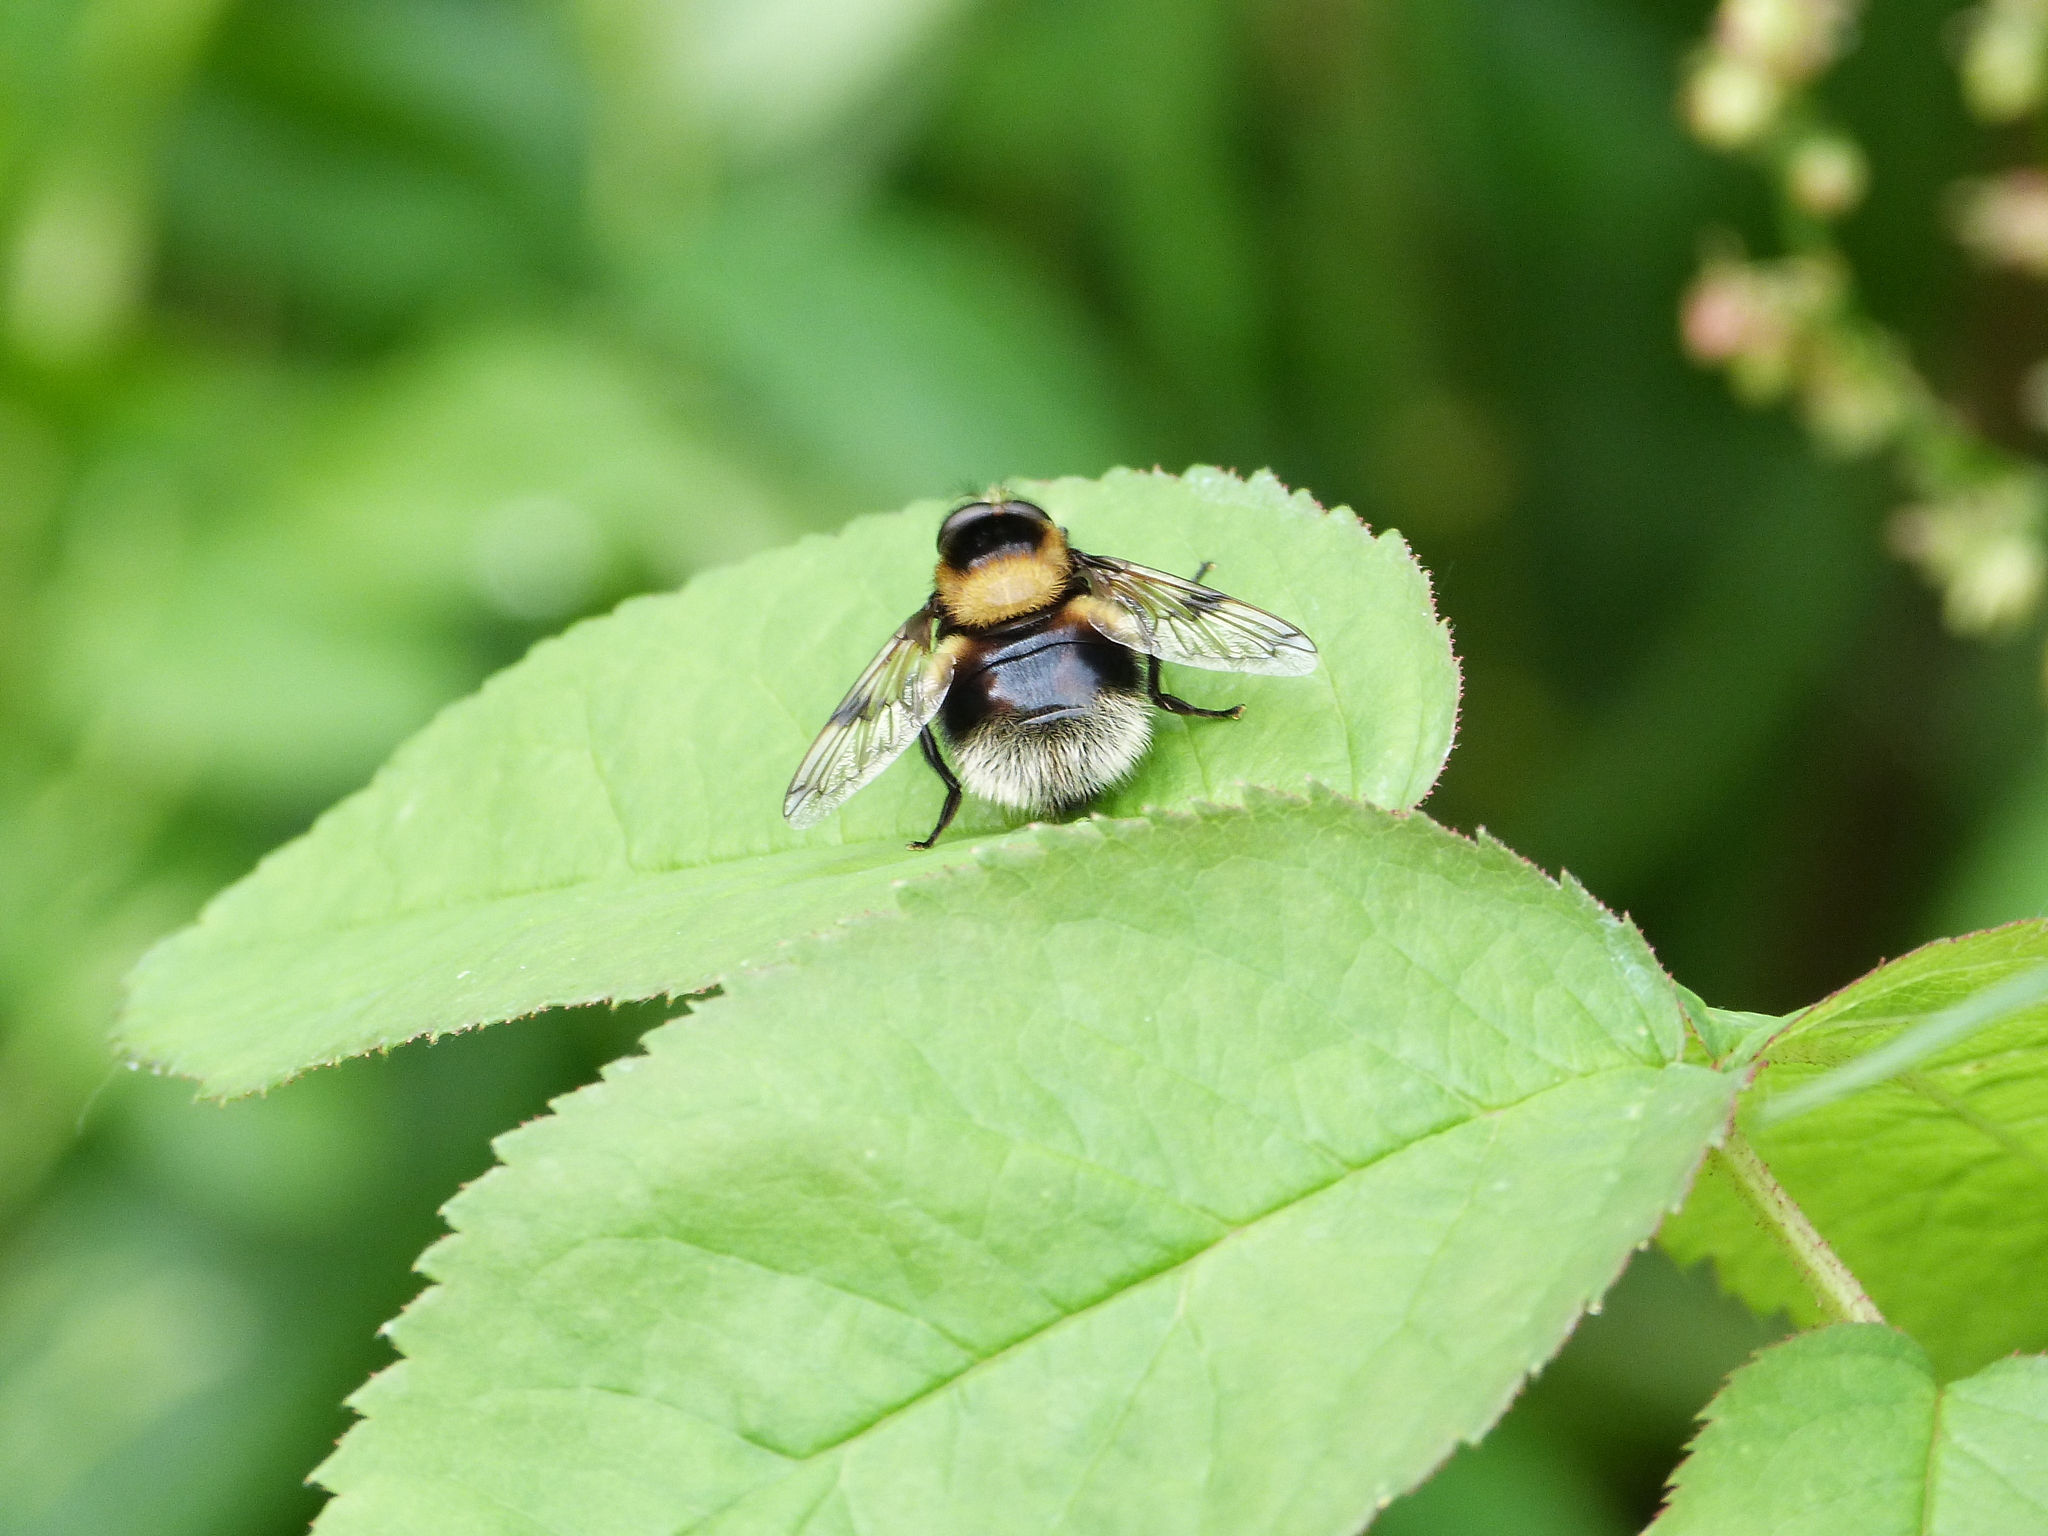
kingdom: Animalia
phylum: Arthropoda
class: Insecta
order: Diptera
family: Syrphidae
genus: Volucella
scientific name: Volucella bombylans
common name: Bumble bee hover fly
